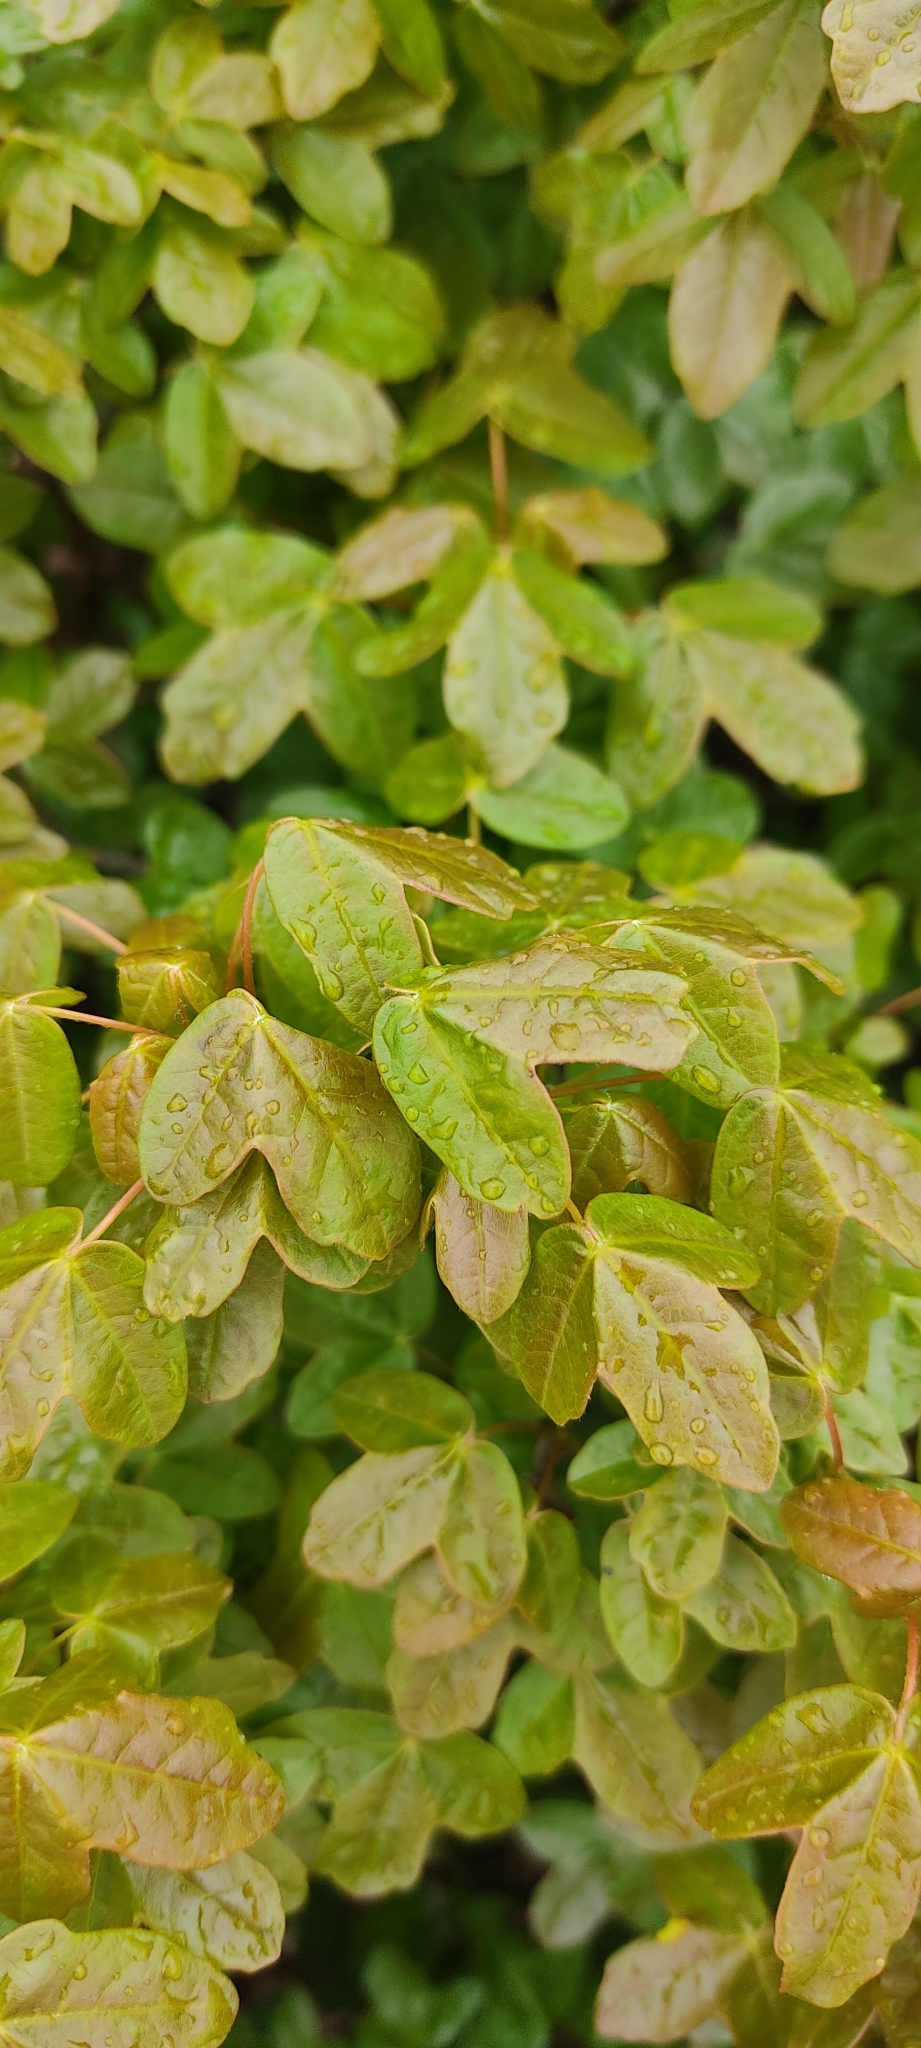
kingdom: Plantae
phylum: Tracheophyta
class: Magnoliopsida
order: Sapindales
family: Sapindaceae
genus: Acer
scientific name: Acer monspessulanum
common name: Montpellier maple
